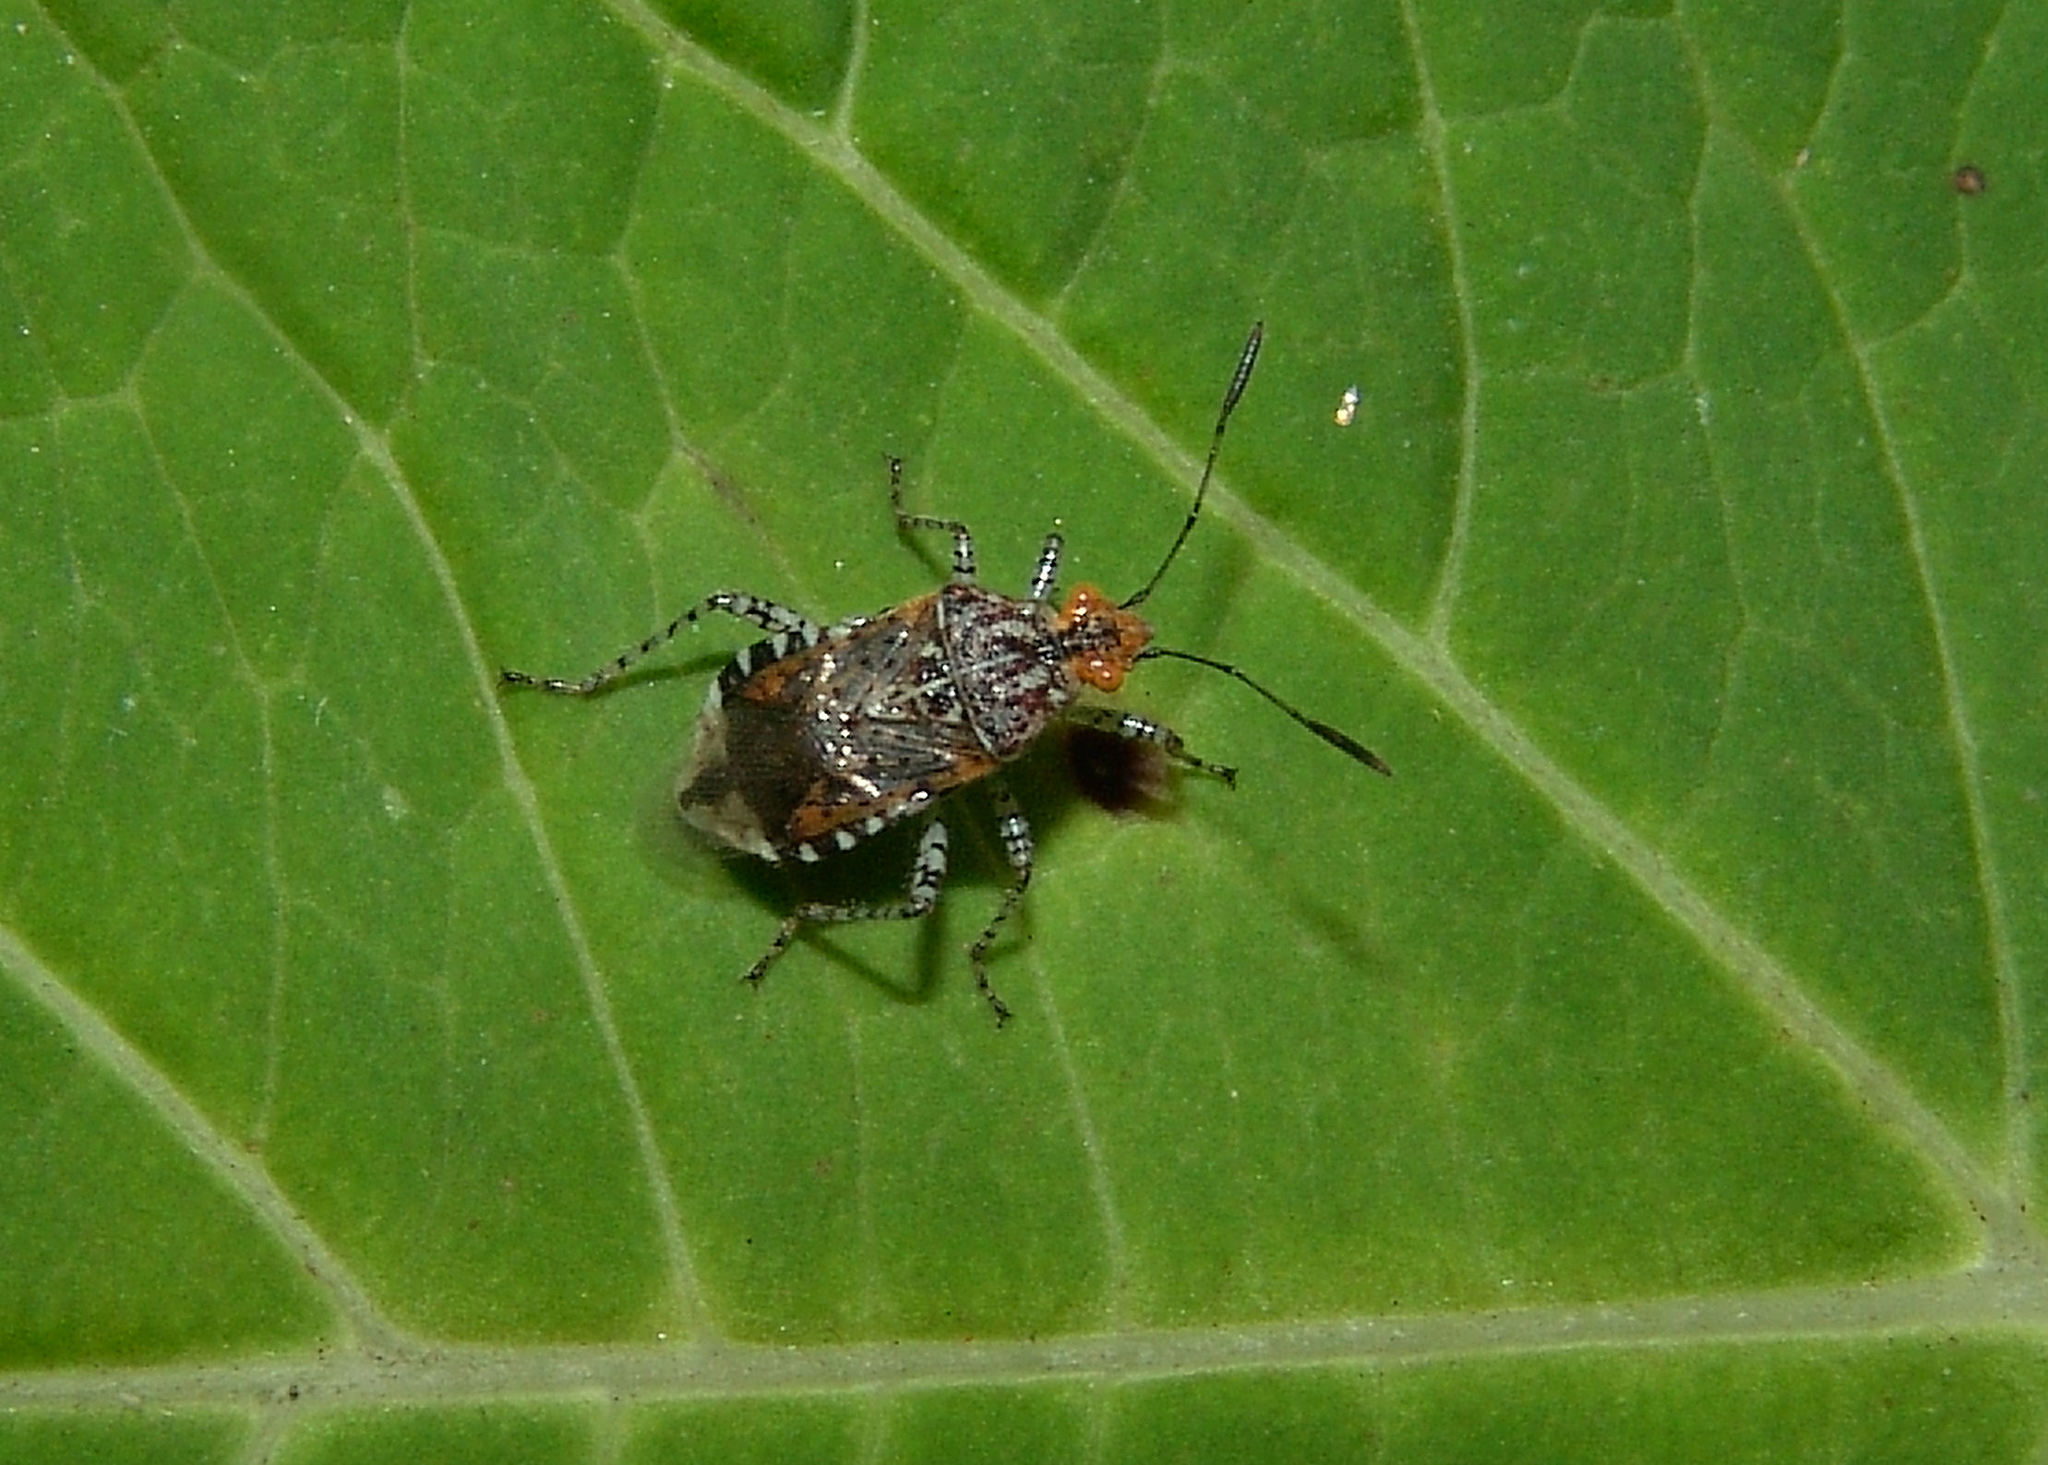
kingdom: Animalia
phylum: Arthropoda
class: Insecta
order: Hemiptera
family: Rhopalidae
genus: Niesthrea
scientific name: Niesthrea louisianica
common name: Scentless plant bug
